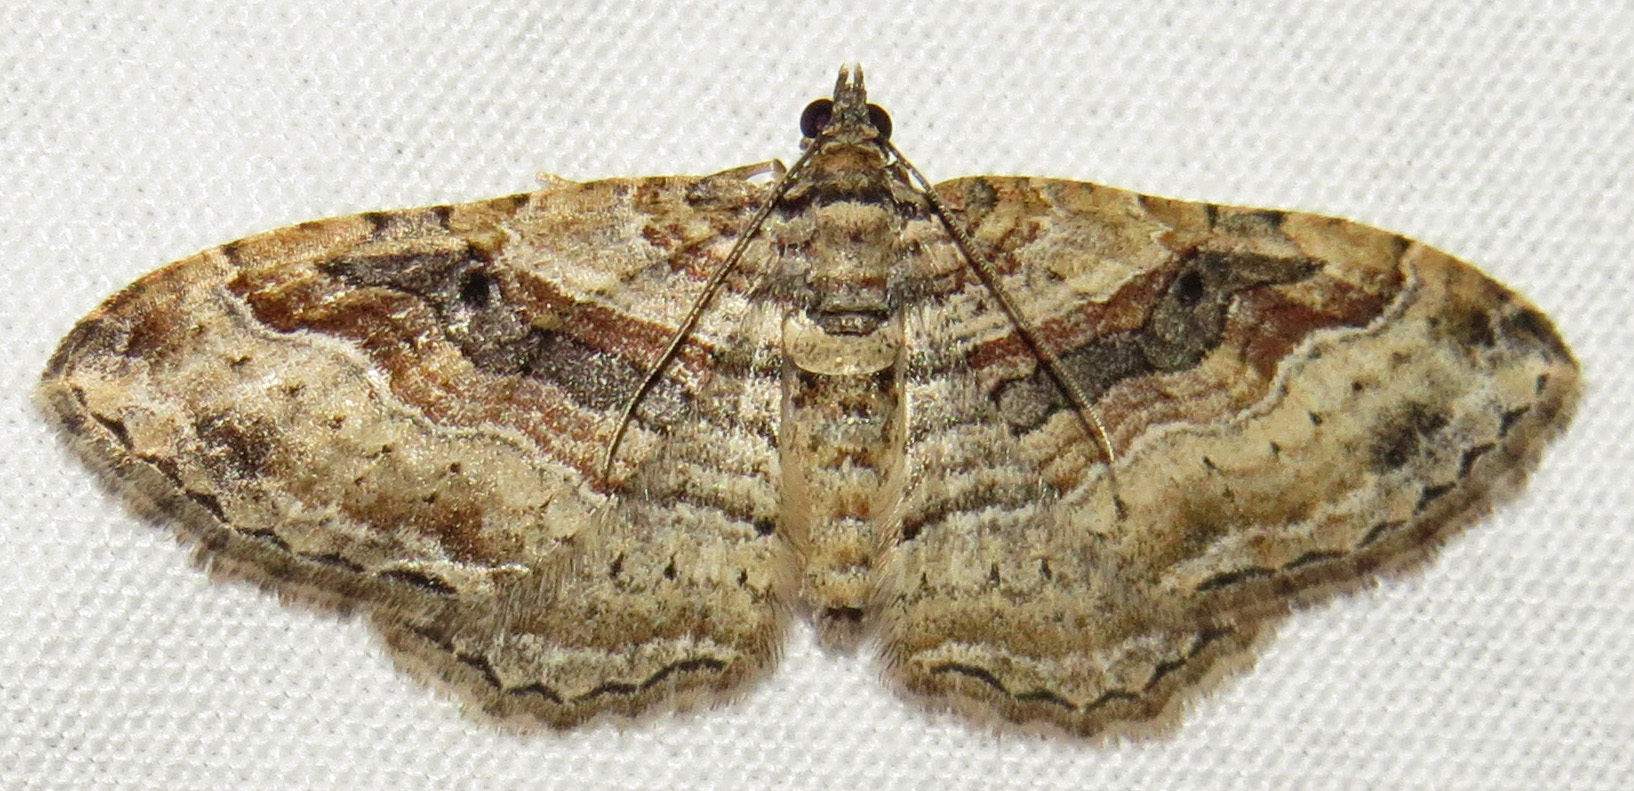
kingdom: Animalia
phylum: Arthropoda
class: Insecta
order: Lepidoptera
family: Geometridae
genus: Costaconvexa
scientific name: Costaconvexa centrostrigaria
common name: Bent-line carpet
